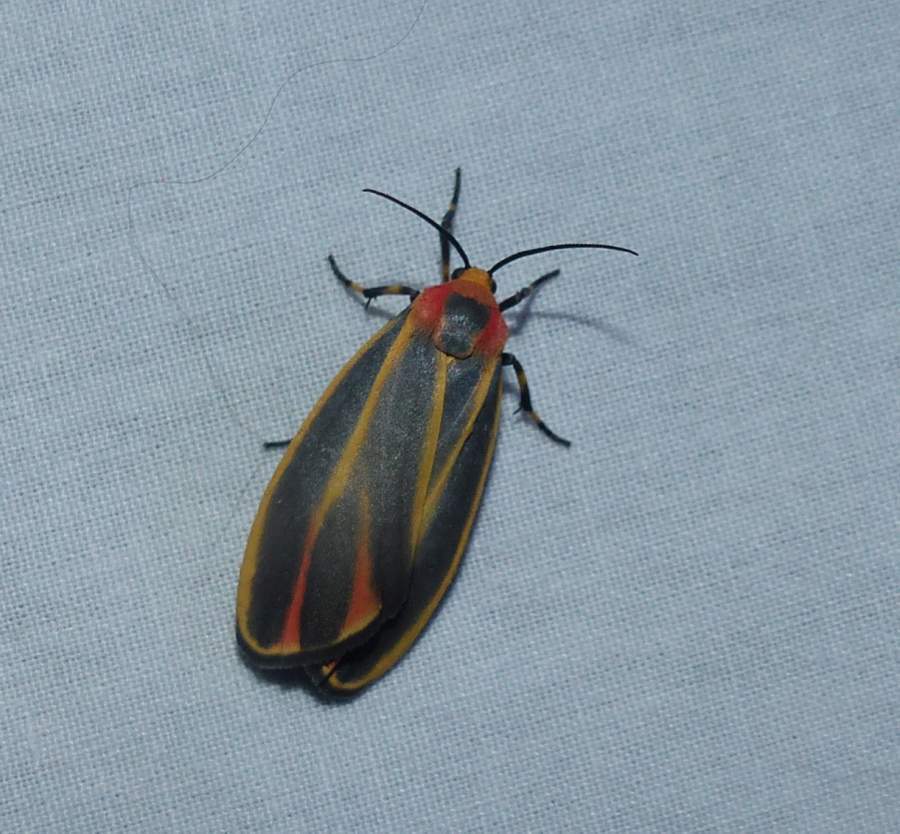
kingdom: Animalia
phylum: Arthropoda
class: Insecta
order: Lepidoptera
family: Erebidae
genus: Hypoprepia
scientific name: Hypoprepia fucosa
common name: Painted lichen moth
